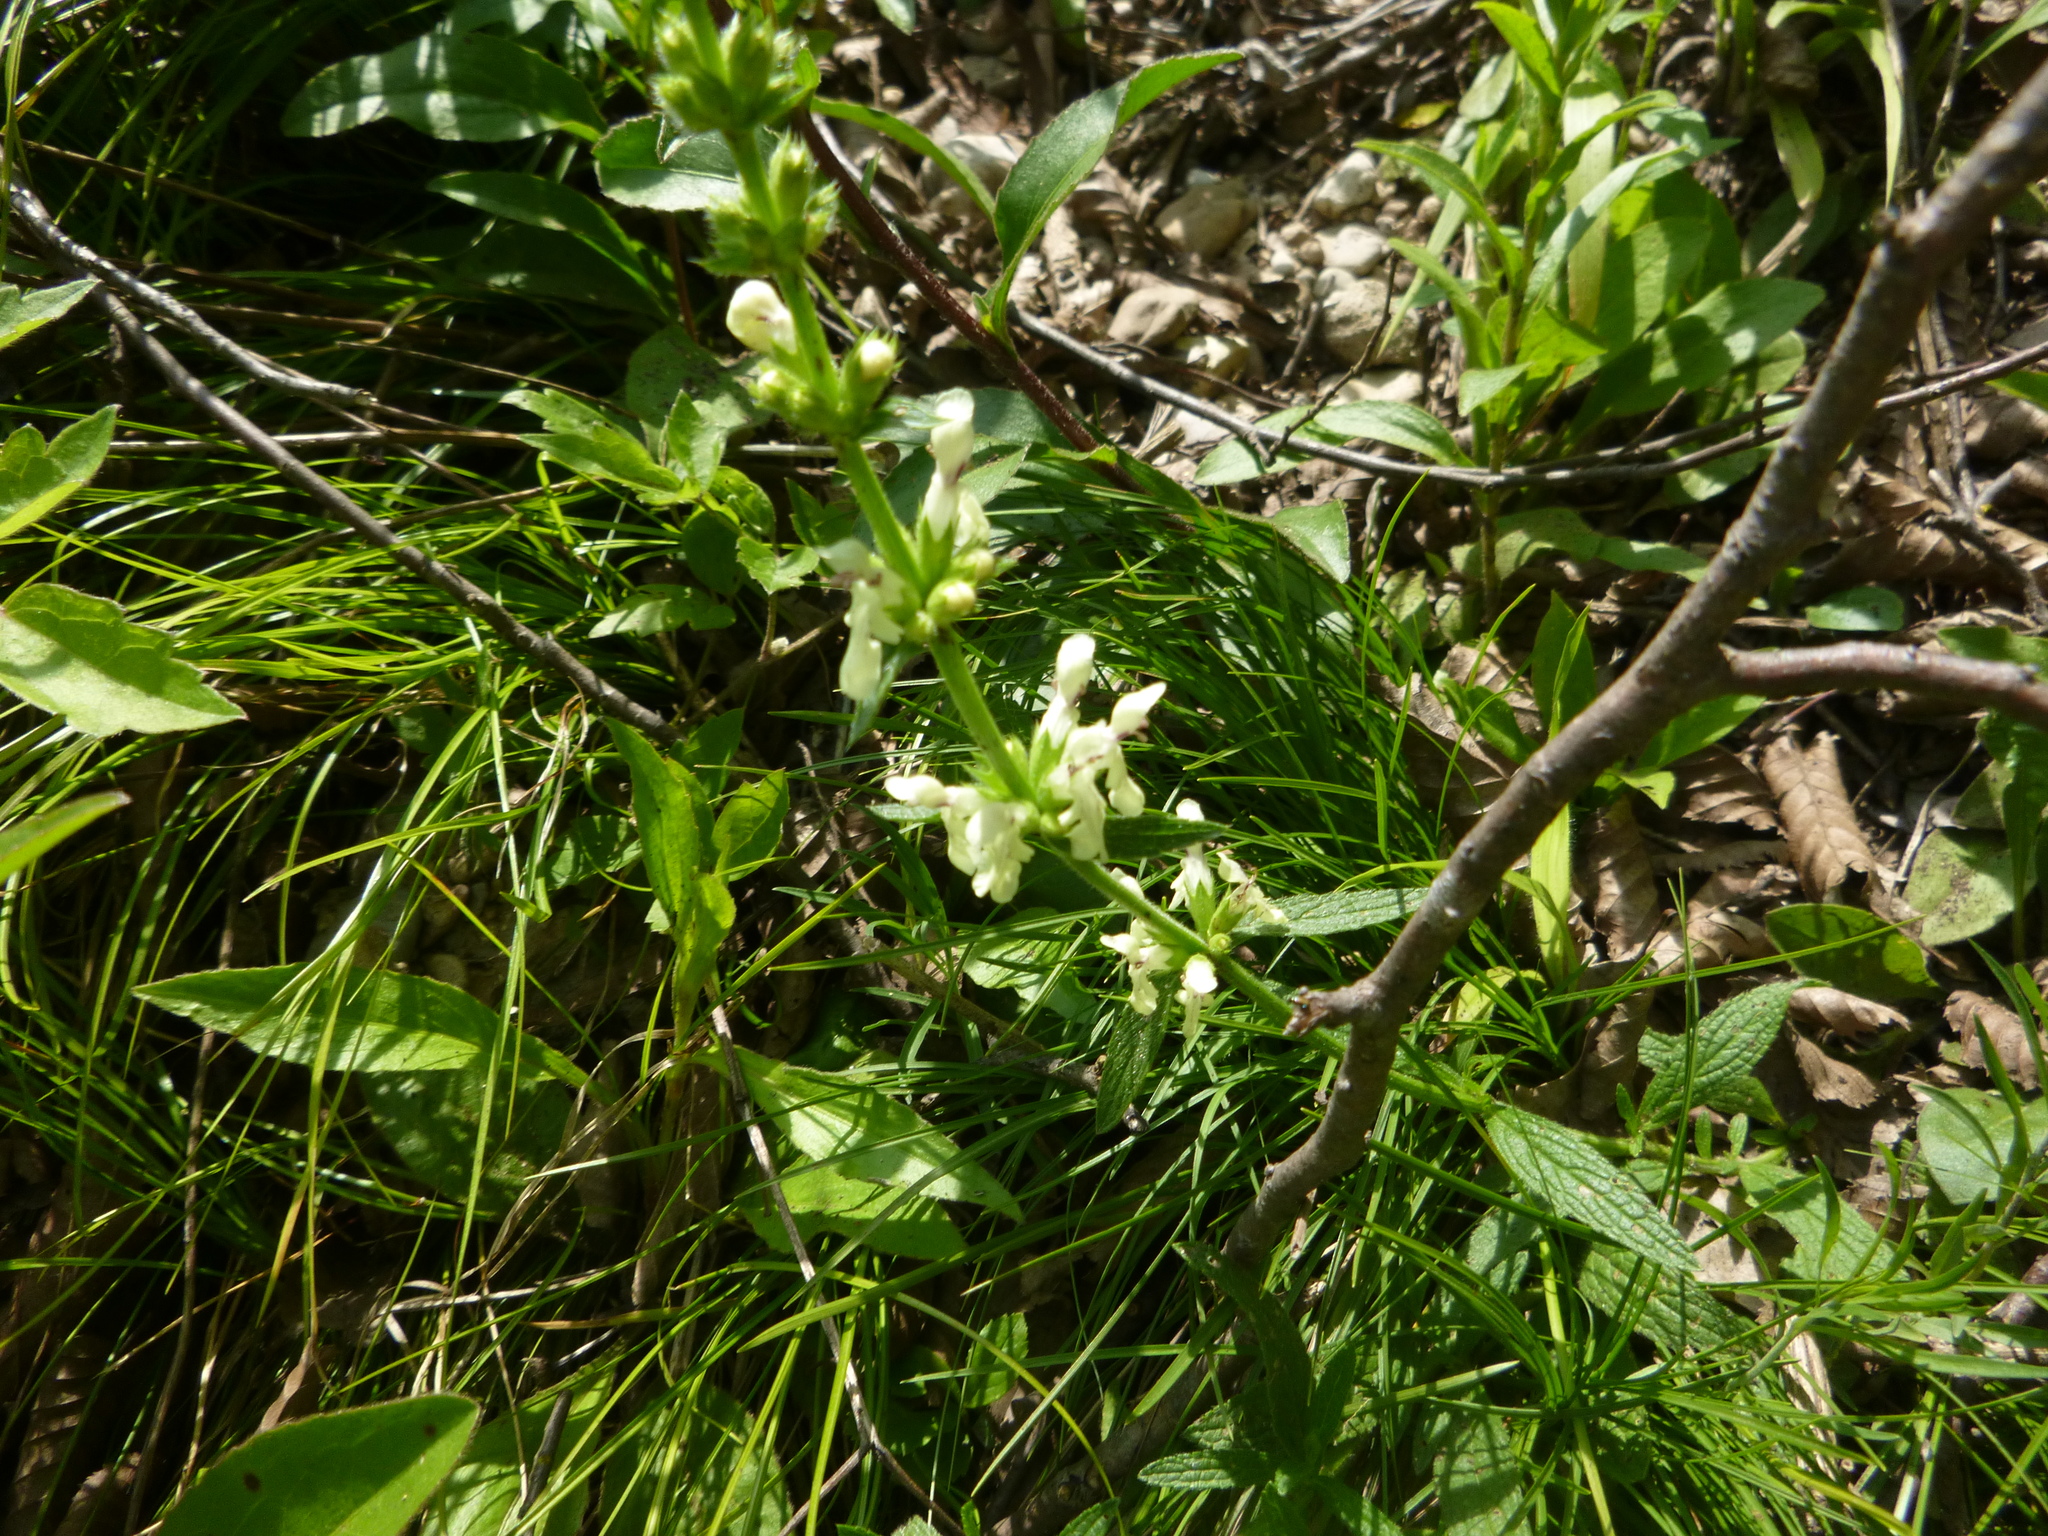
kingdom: Plantae
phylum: Tracheophyta
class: Magnoliopsida
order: Lamiales
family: Lamiaceae
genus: Stachys
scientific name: Stachys recta
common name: Perennial yellow-woundwort
